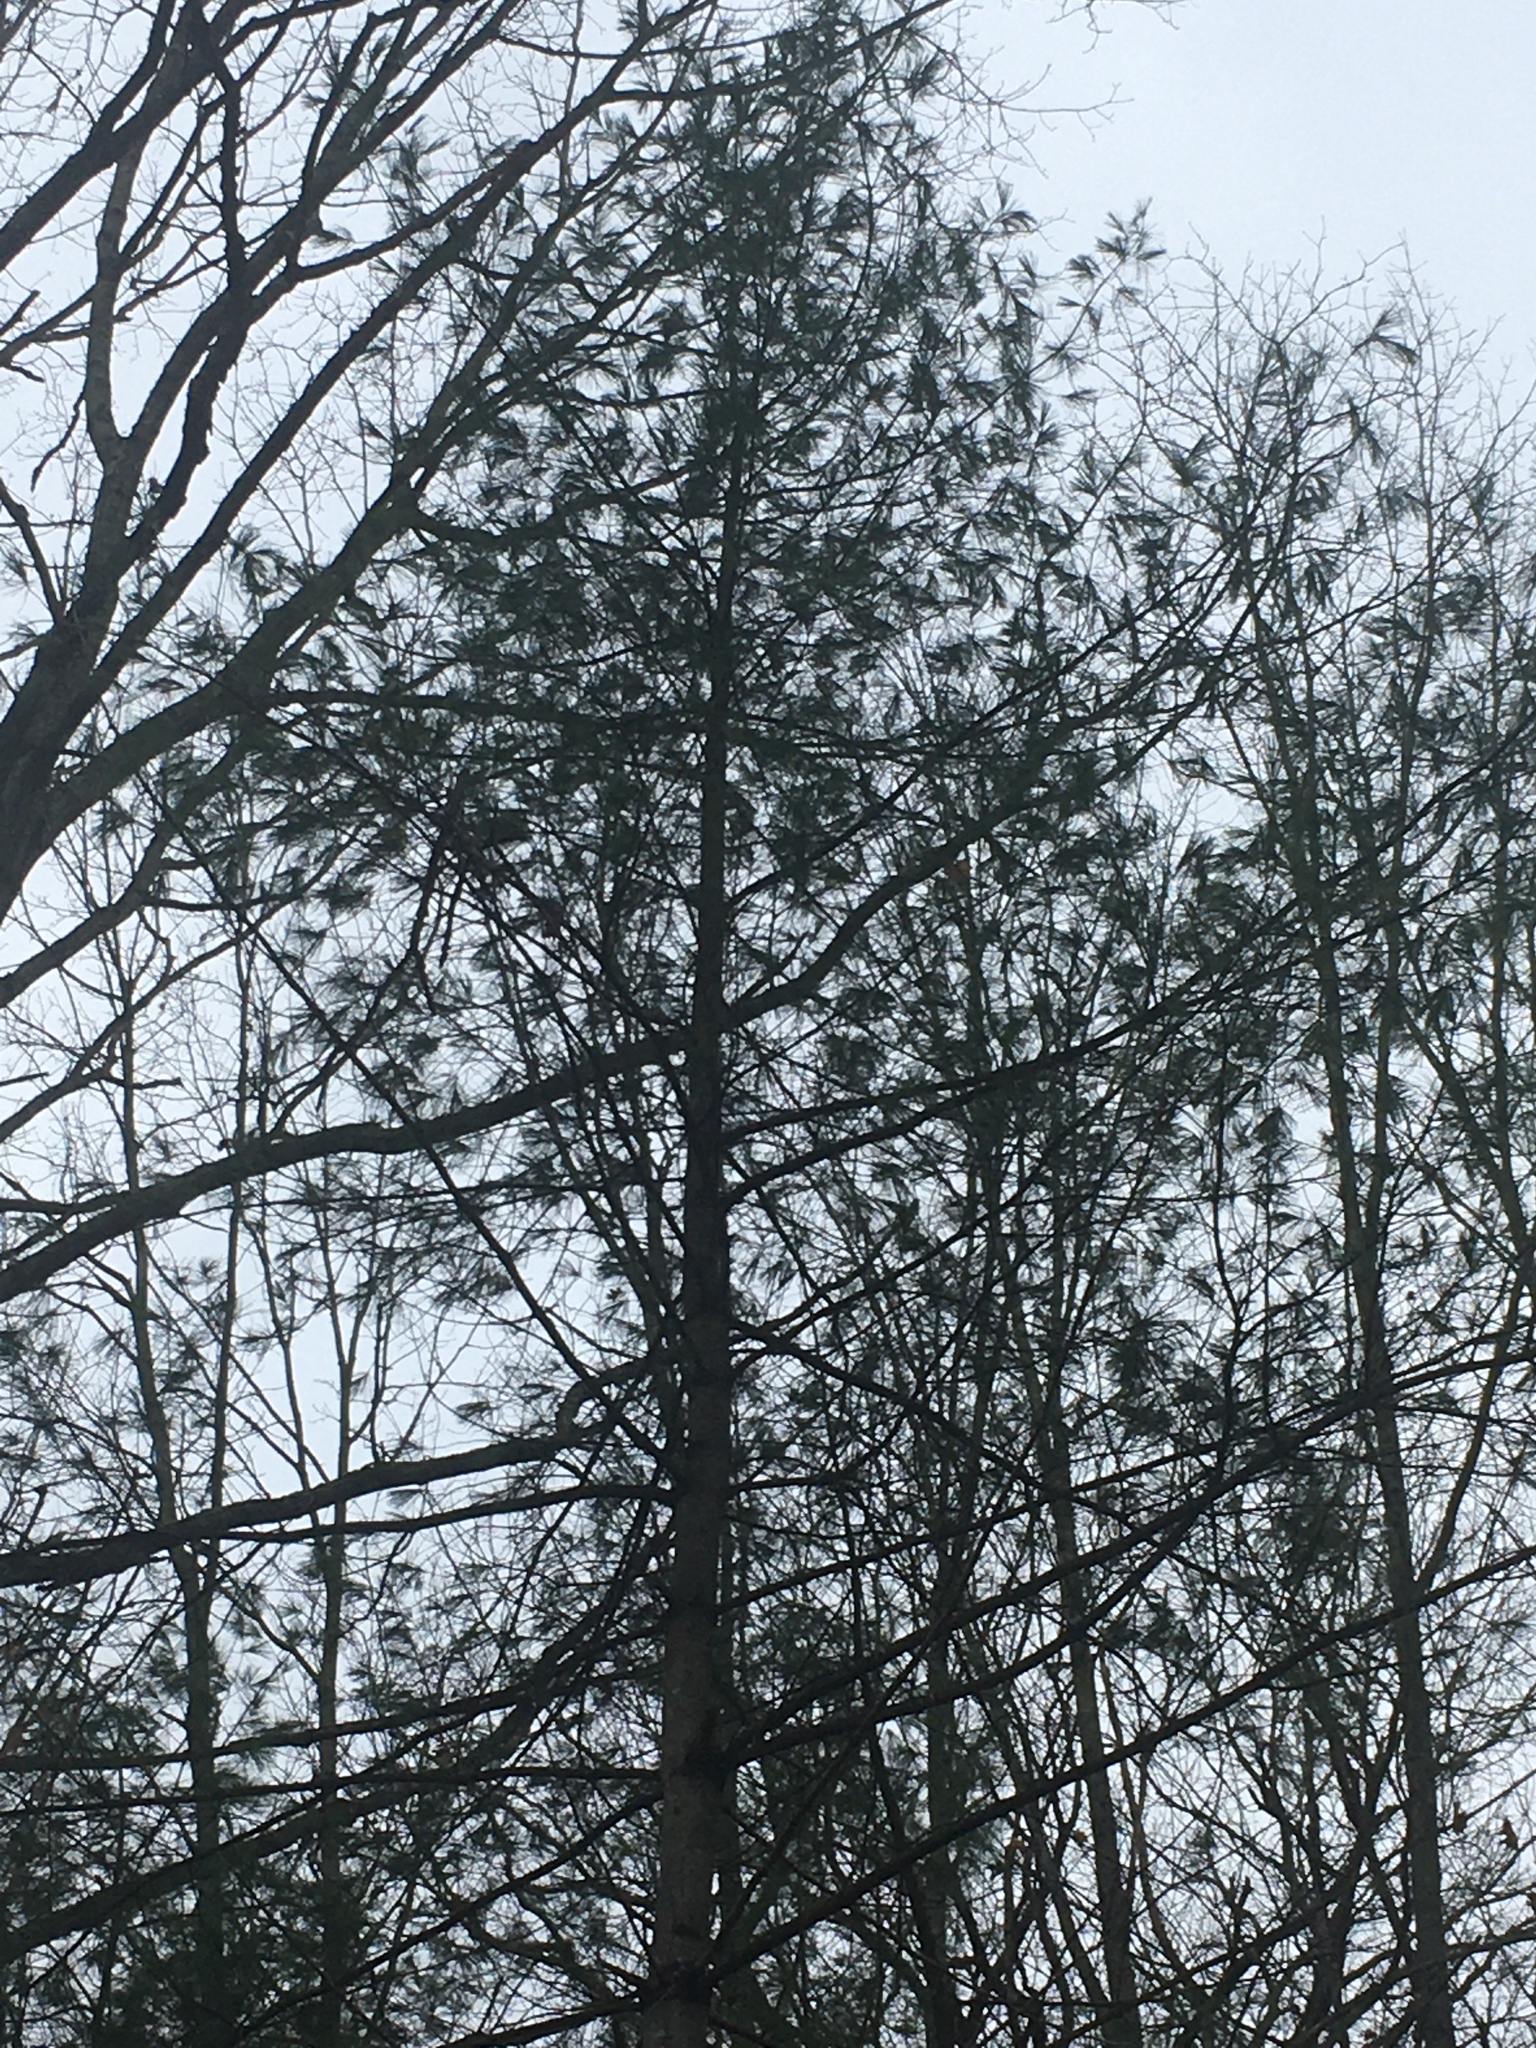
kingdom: Plantae
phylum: Tracheophyta
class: Pinopsida
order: Pinales
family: Pinaceae
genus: Pinus
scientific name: Pinus strobus
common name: Weymouth pine
